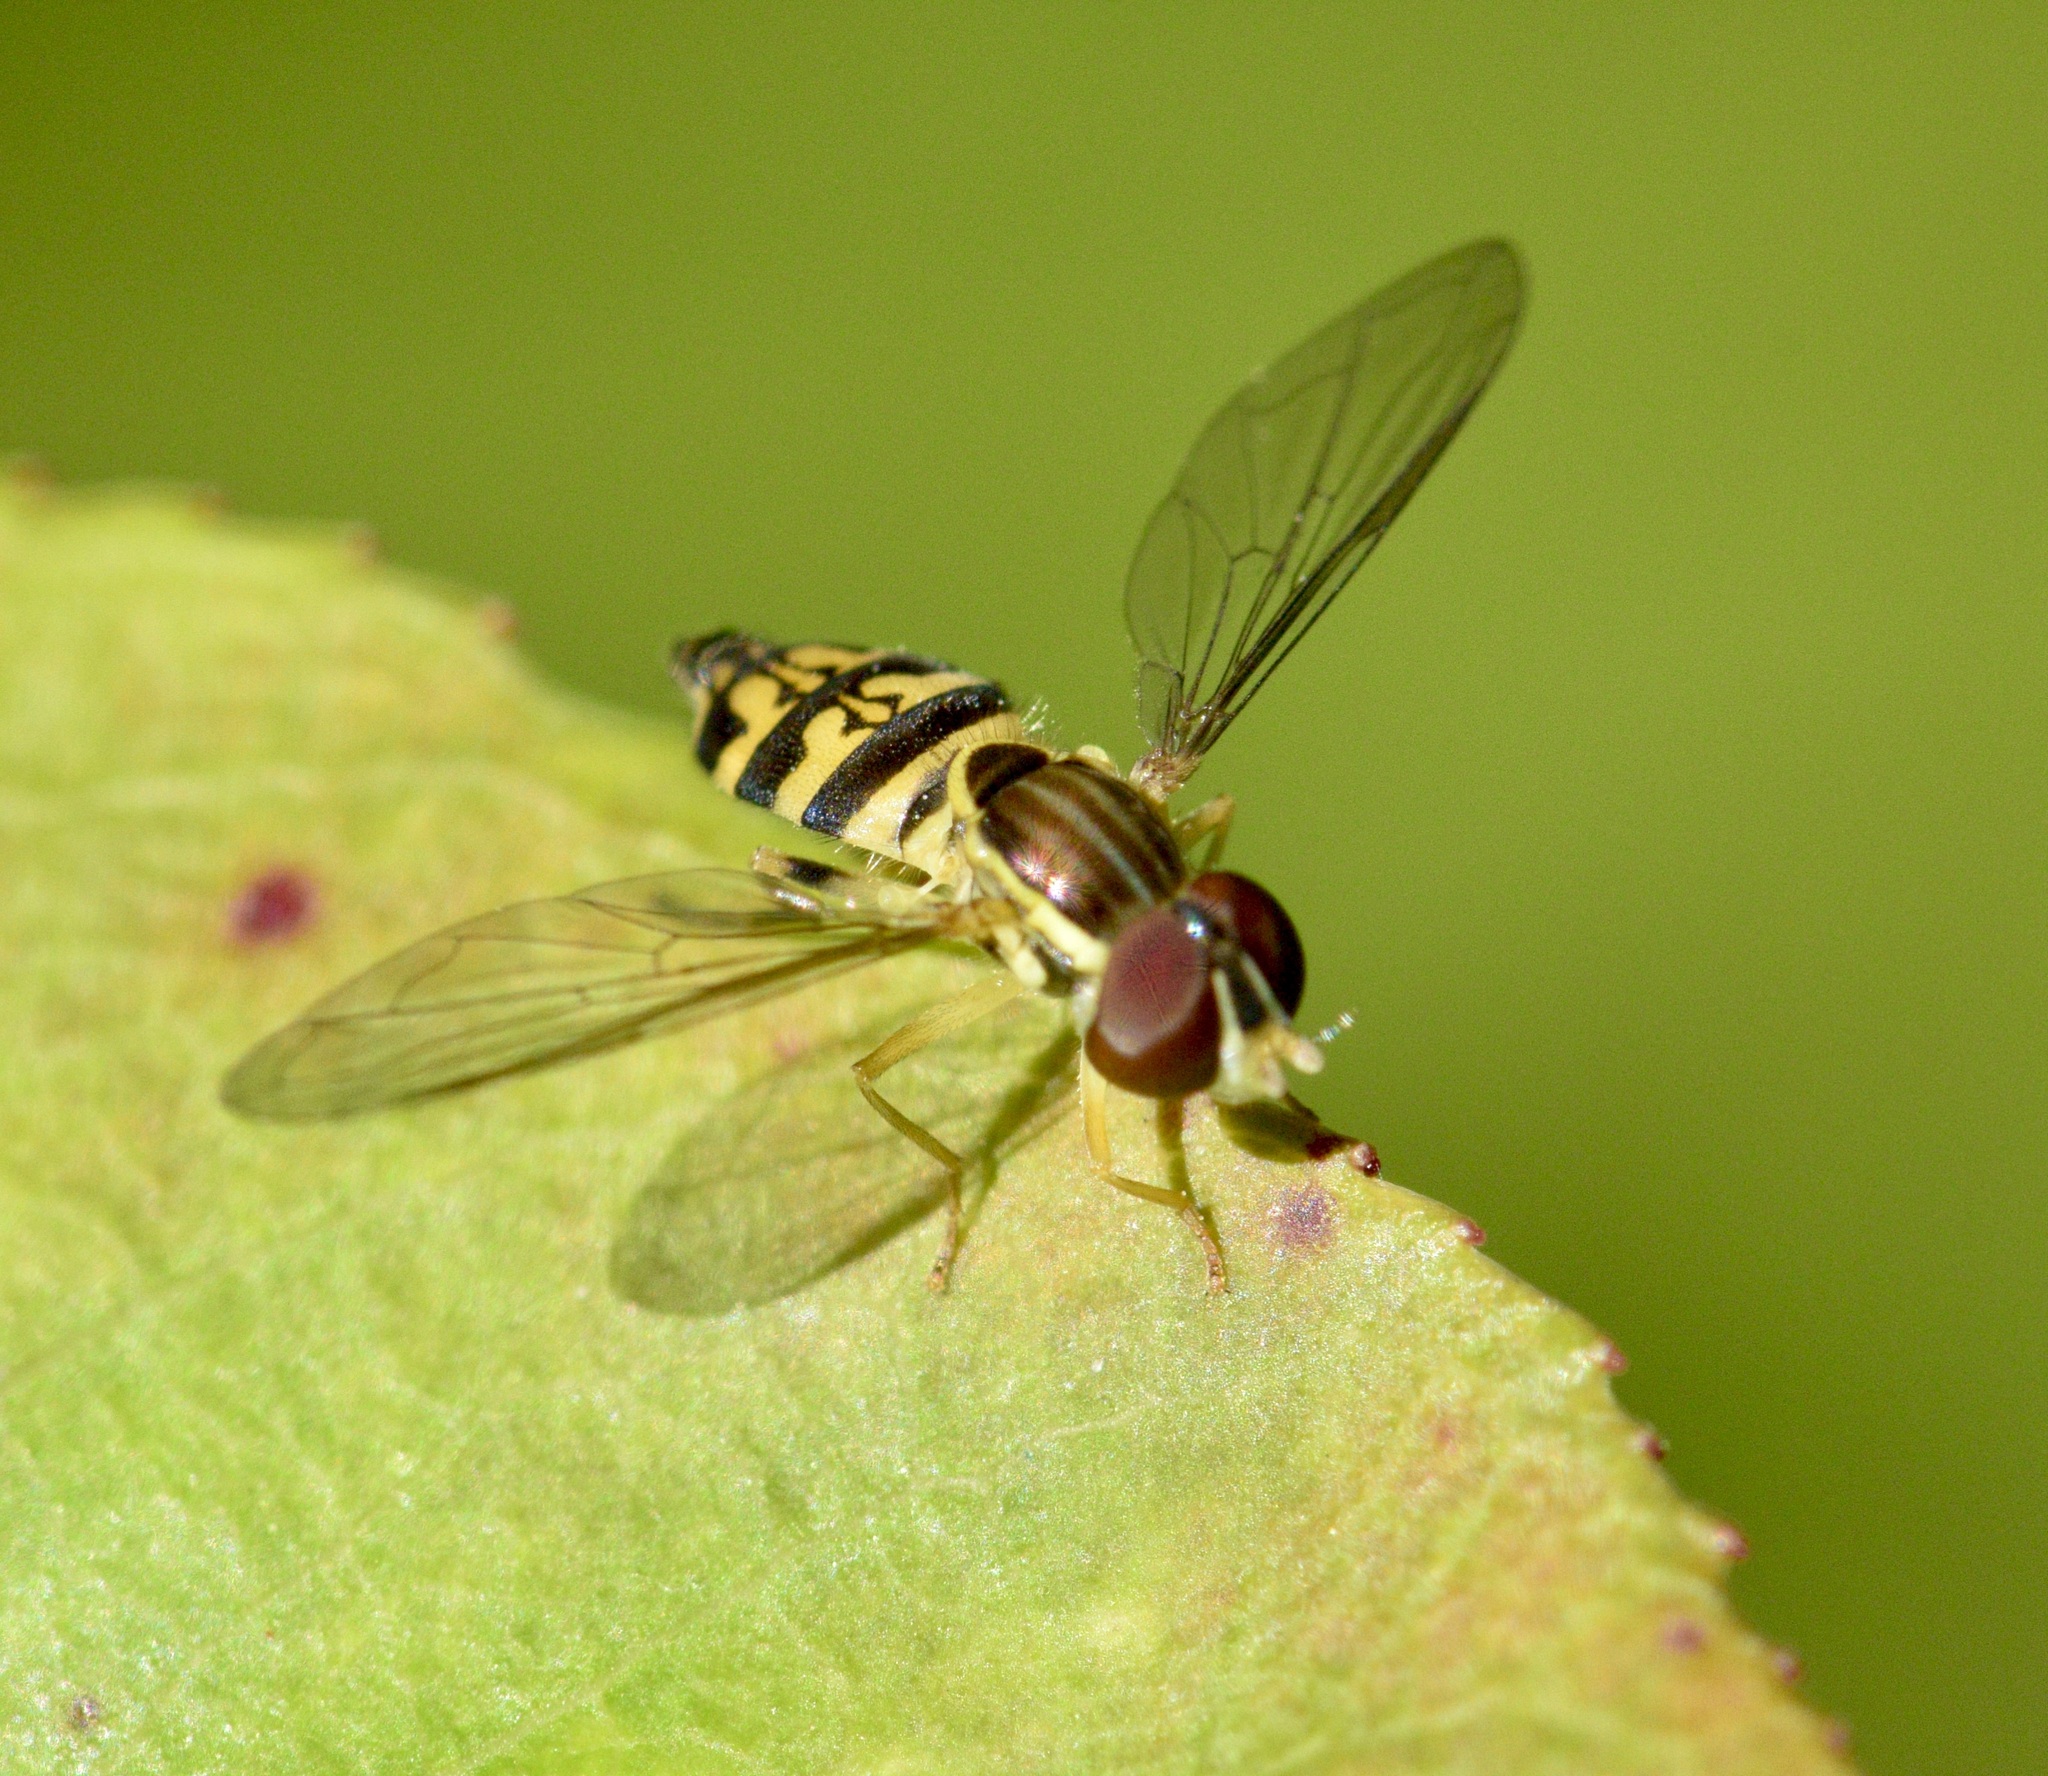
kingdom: Animalia
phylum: Arthropoda
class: Insecta
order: Diptera
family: Syrphidae
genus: Toxomerus
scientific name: Toxomerus geminatus
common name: Eastern calligrapher
